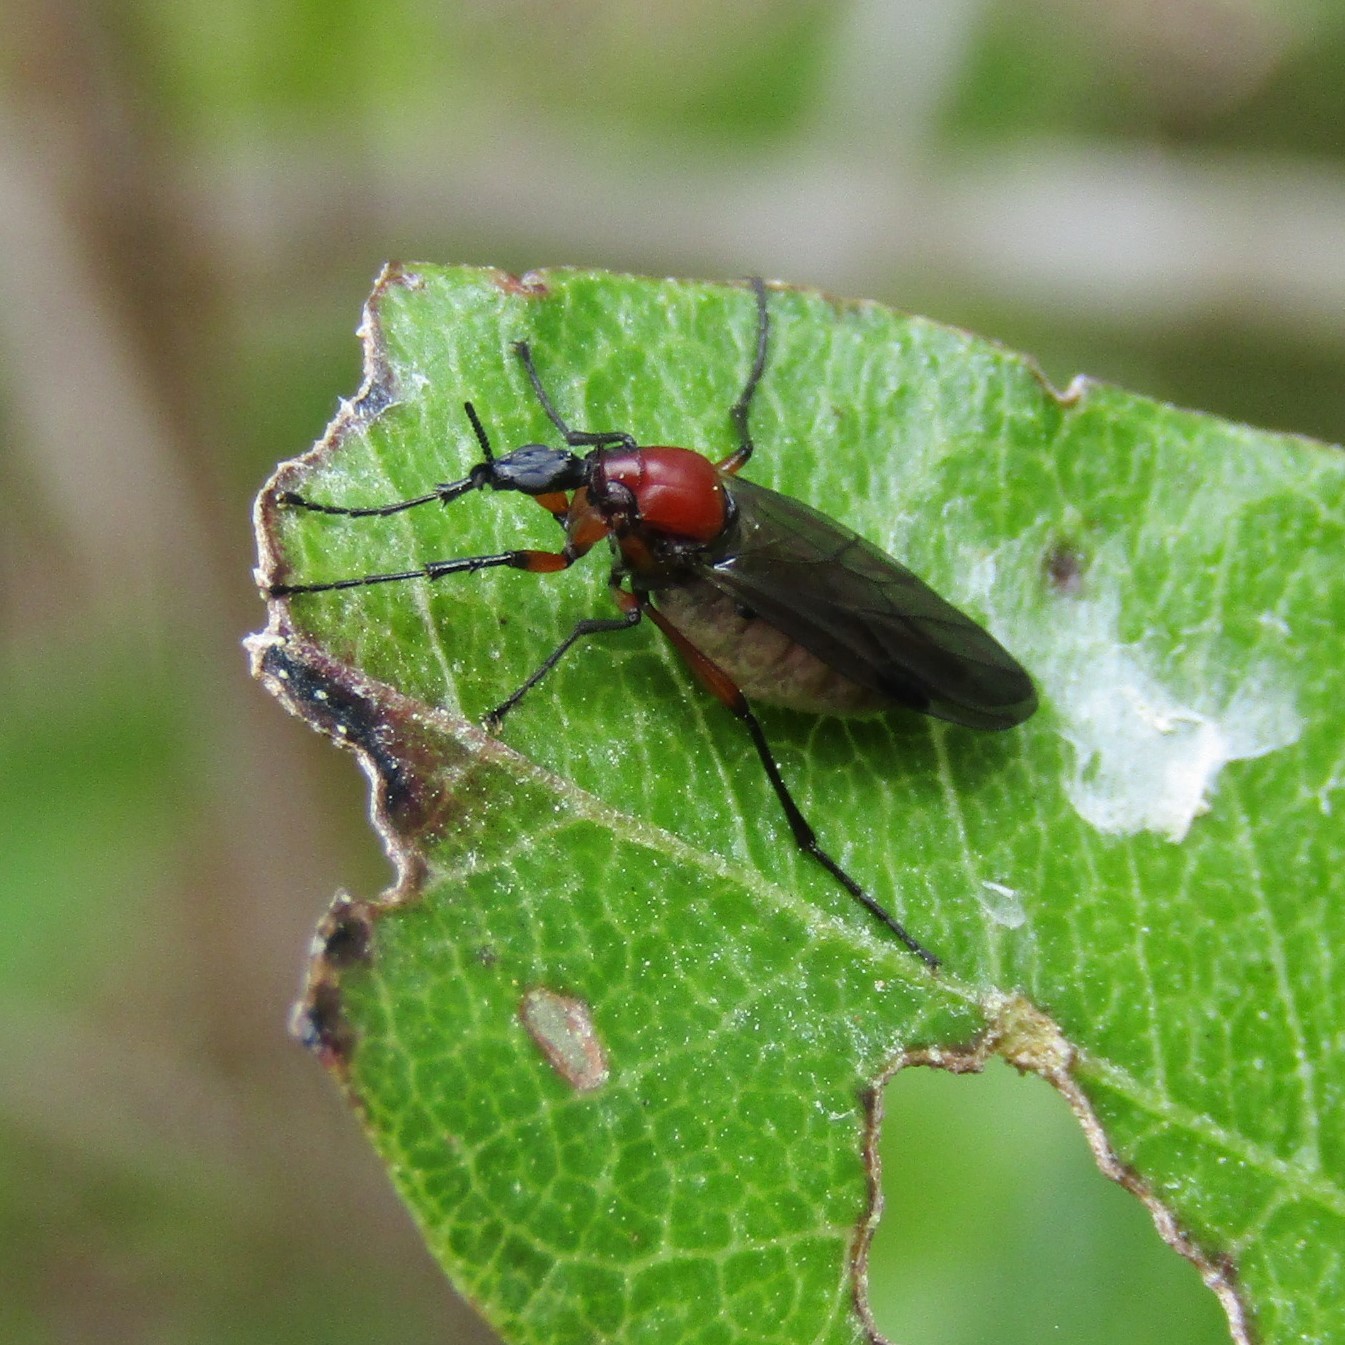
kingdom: Animalia
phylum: Arthropoda
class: Insecta
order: Diptera
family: Bibionidae
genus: Dilophus
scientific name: Dilophus nigrostigma
